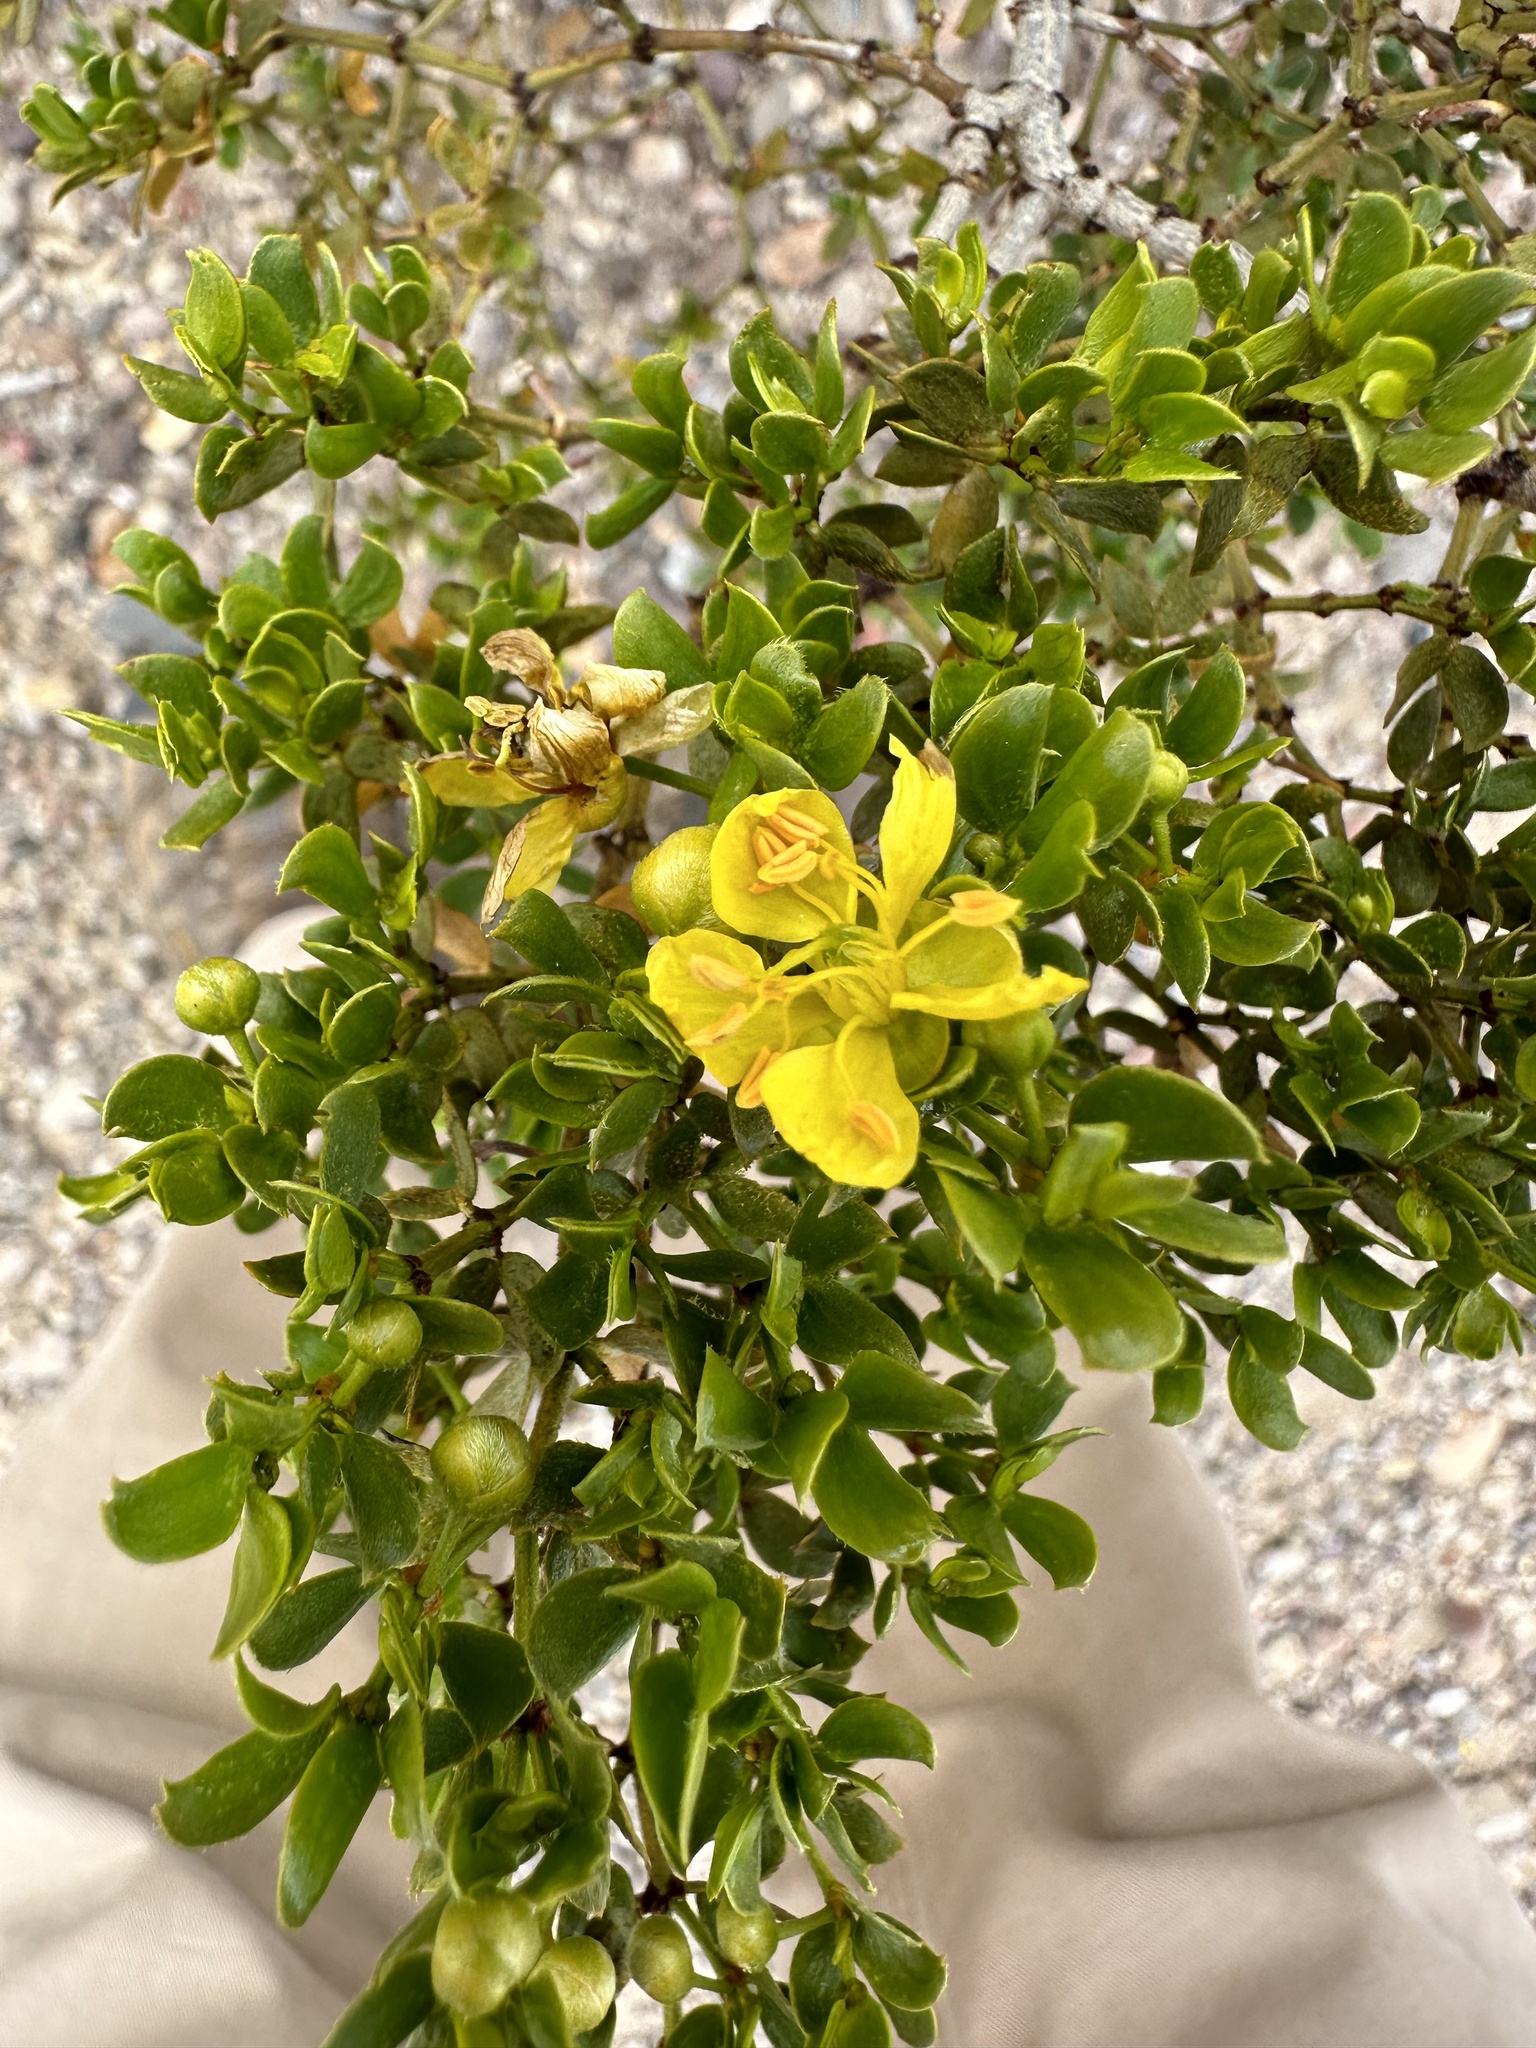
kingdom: Plantae
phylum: Tracheophyta
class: Magnoliopsida
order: Zygophyllales
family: Zygophyllaceae
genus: Larrea
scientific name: Larrea tridentata
